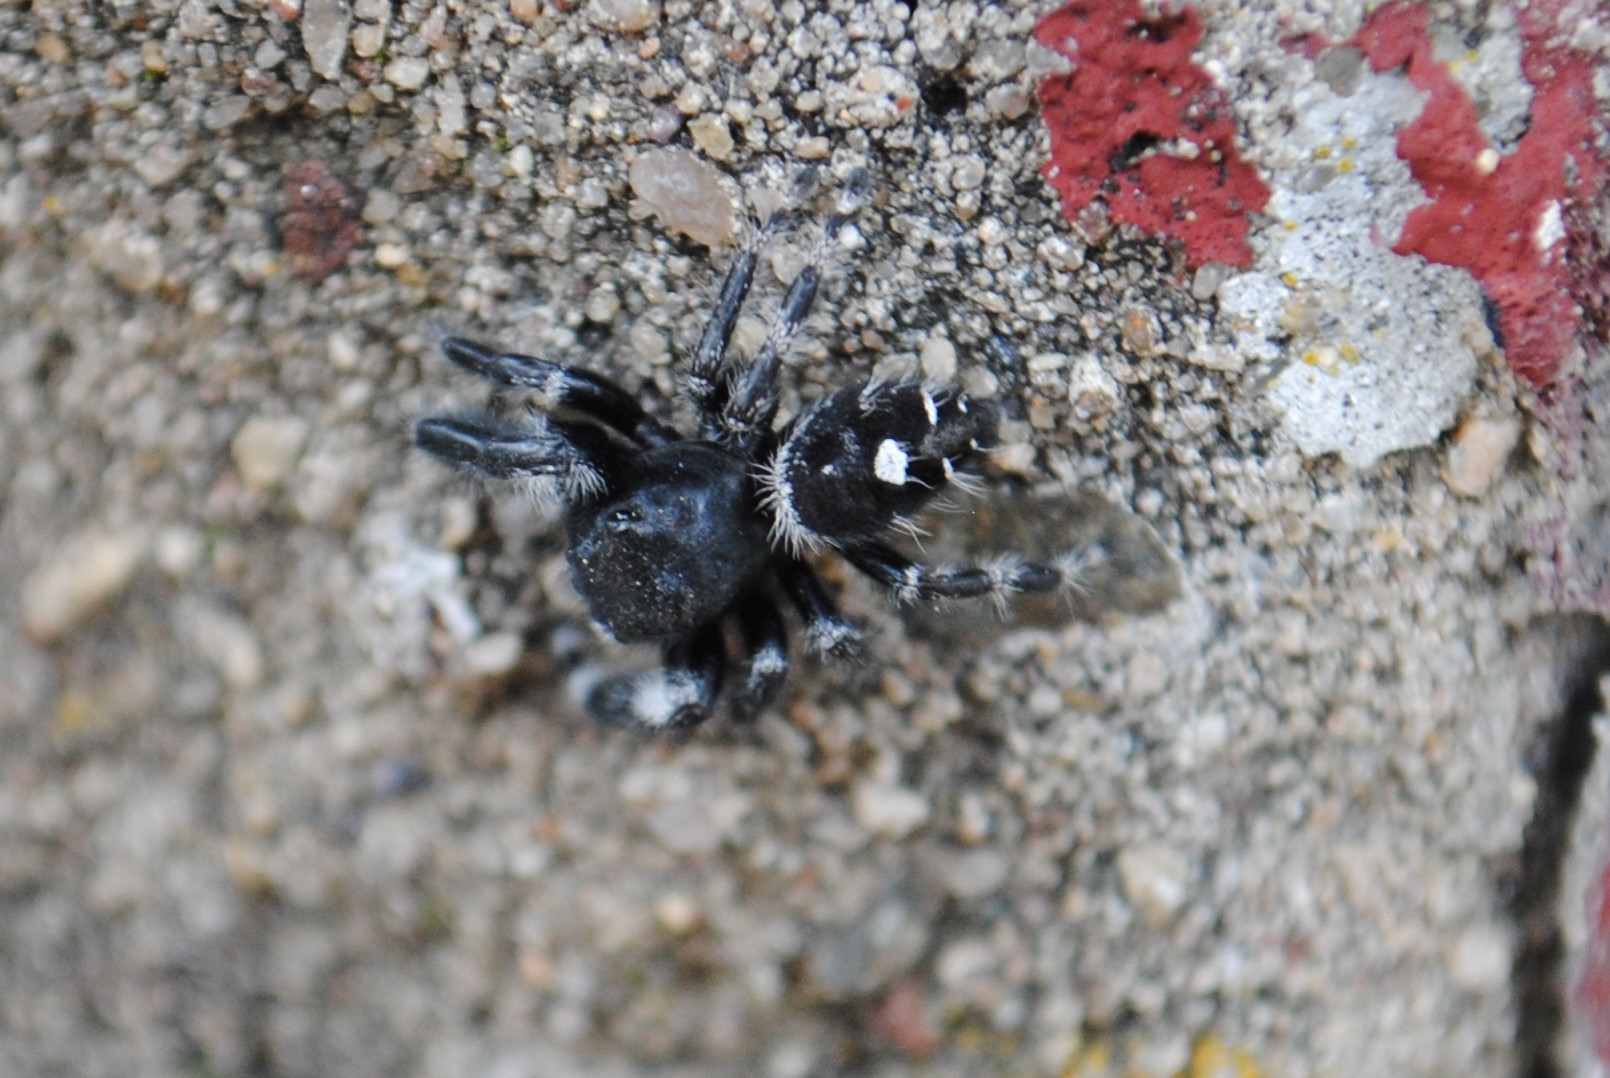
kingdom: Animalia
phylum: Arthropoda
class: Arachnida
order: Araneae
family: Salticidae
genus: Phidippus
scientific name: Phidippus audax
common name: Bold jumper
